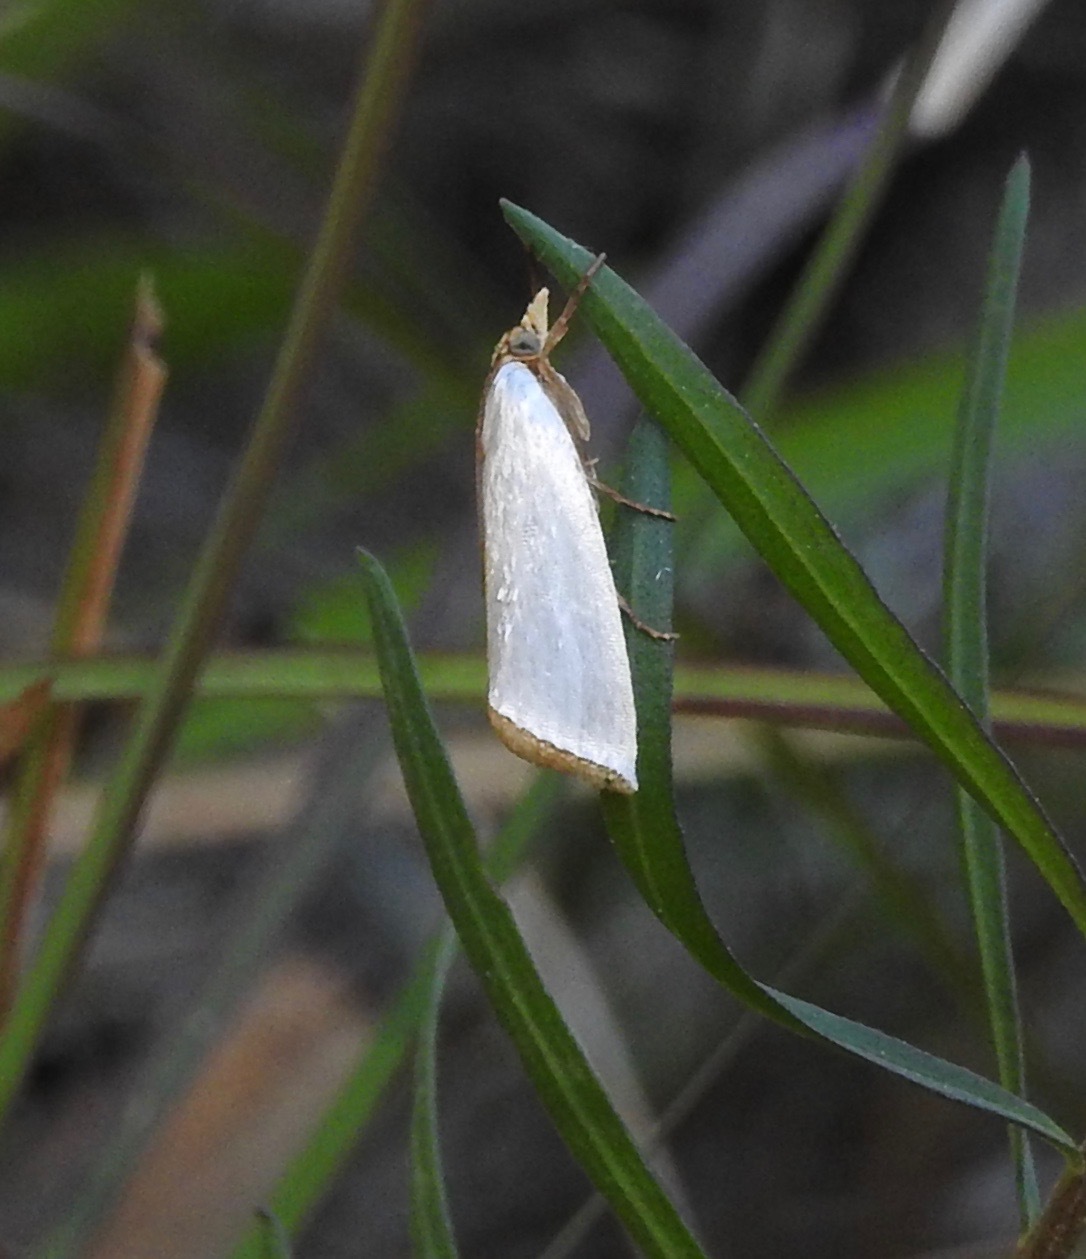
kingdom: Animalia
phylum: Arthropoda
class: Insecta
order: Lepidoptera
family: Crambidae
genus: Argyria
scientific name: Argyria nivalis
